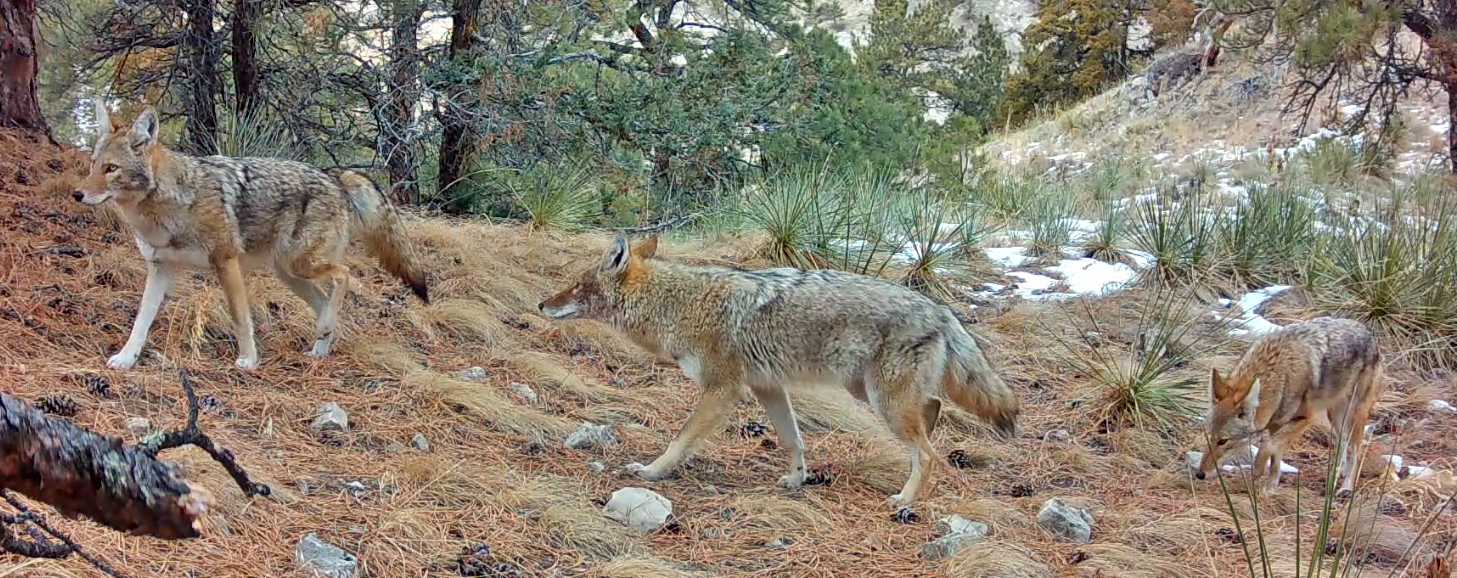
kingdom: Animalia
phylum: Chordata
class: Mammalia
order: Carnivora
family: Canidae
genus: Canis
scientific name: Canis latrans
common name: Coyote
